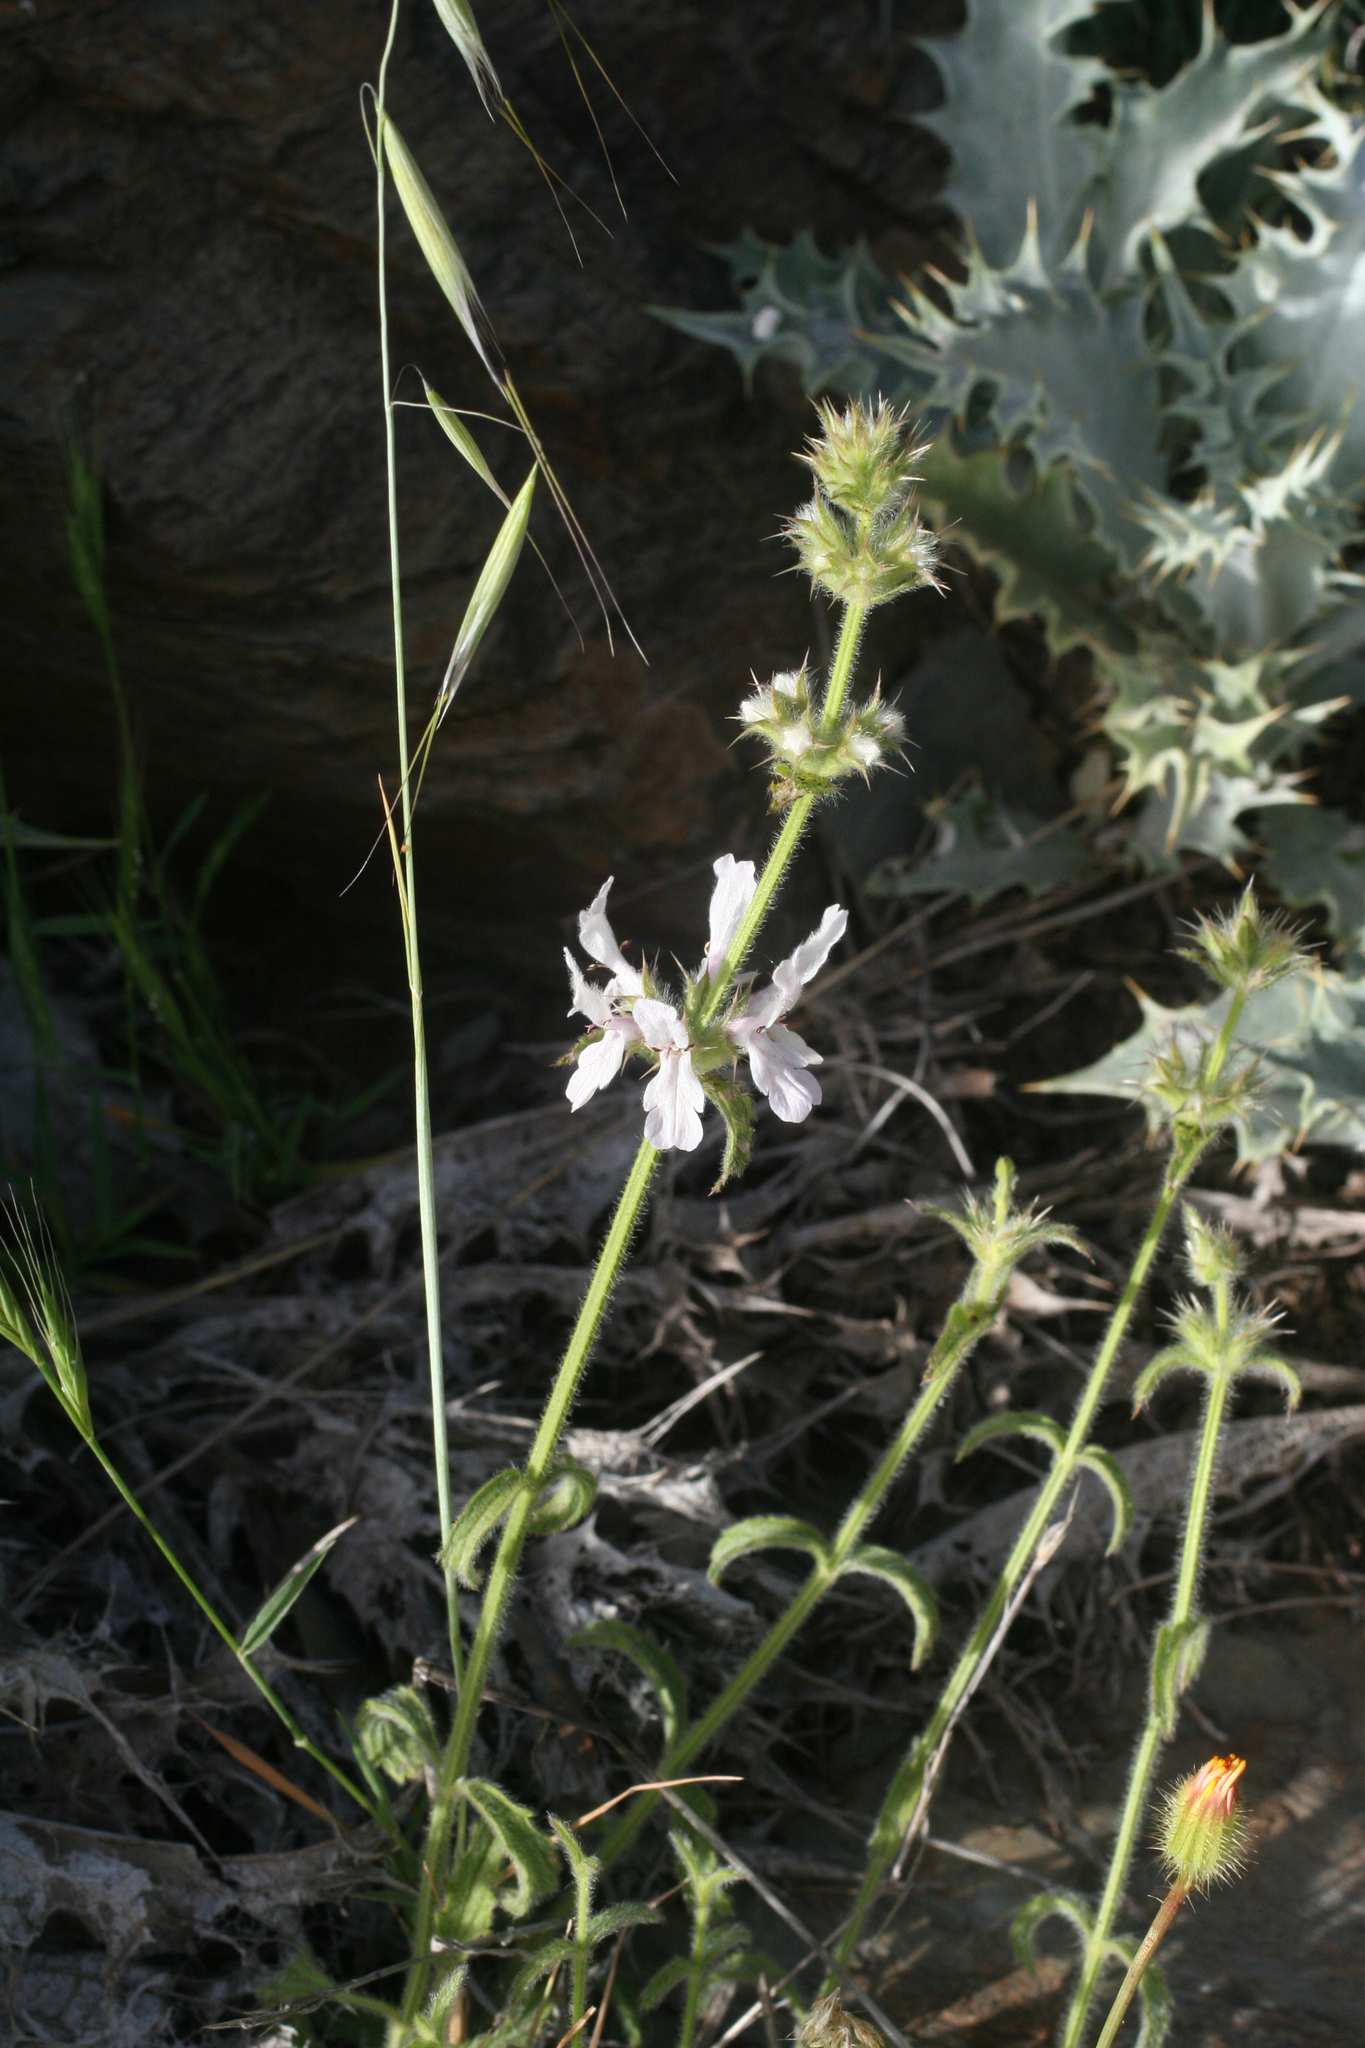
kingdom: Plantae
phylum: Tracheophyta
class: Magnoliopsida
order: Lamiales
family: Lamiaceae
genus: Stachys
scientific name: Stachys arenaria
